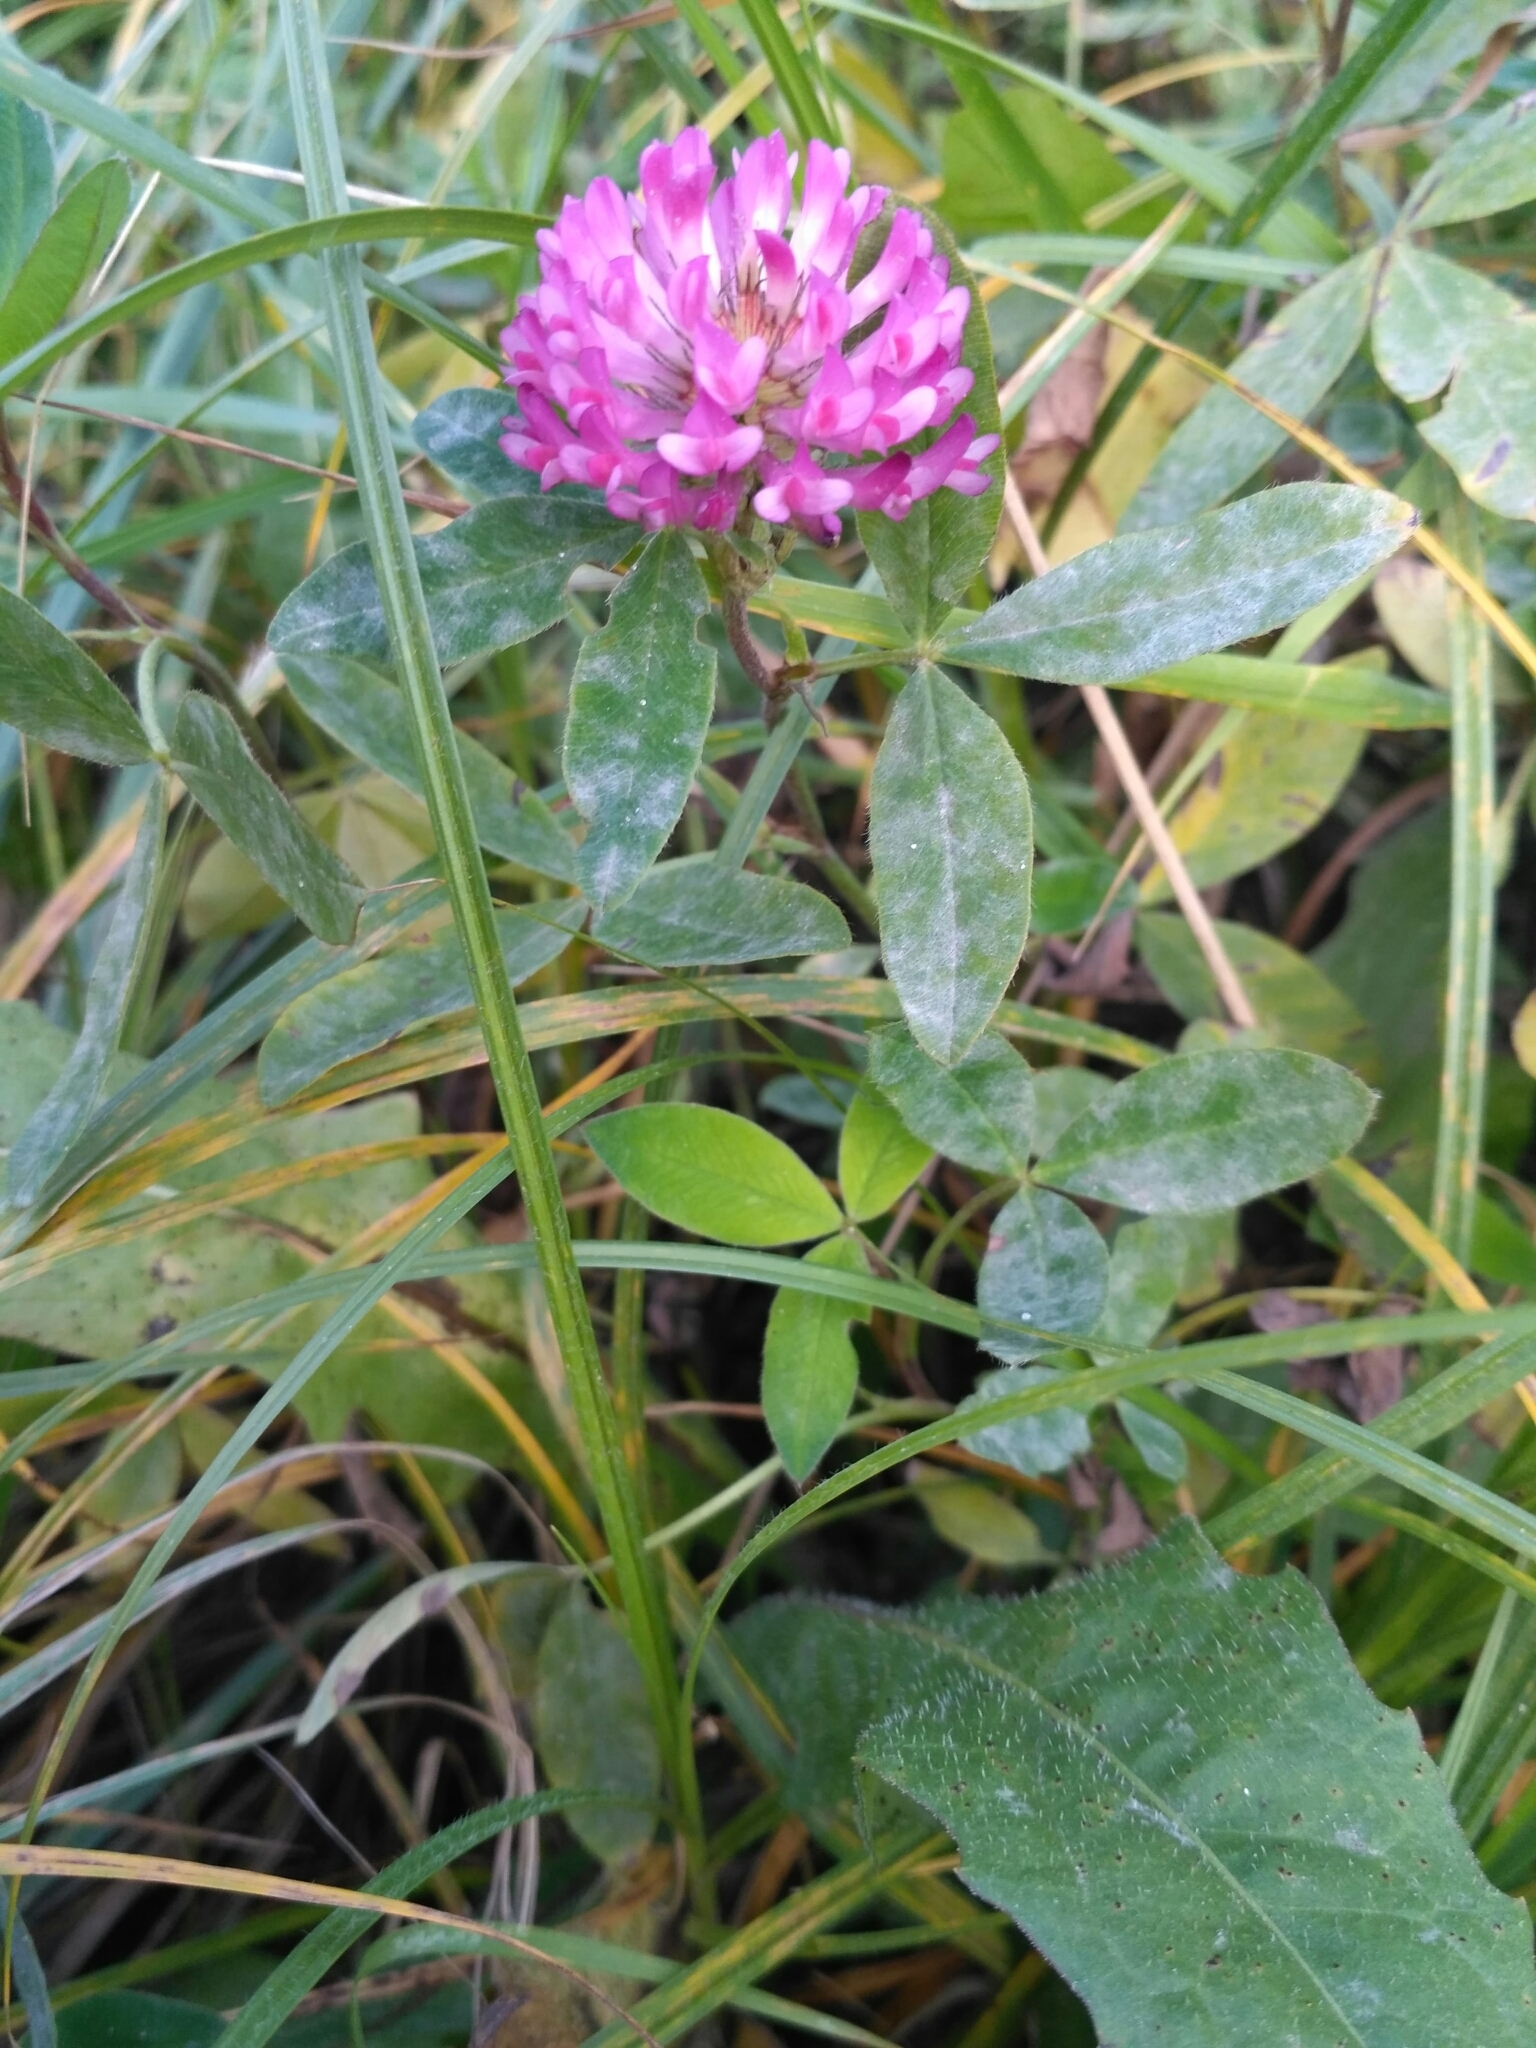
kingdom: Plantae
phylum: Tracheophyta
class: Magnoliopsida
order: Fabales
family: Fabaceae
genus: Trifolium
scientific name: Trifolium medium
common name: Zigzag clover
